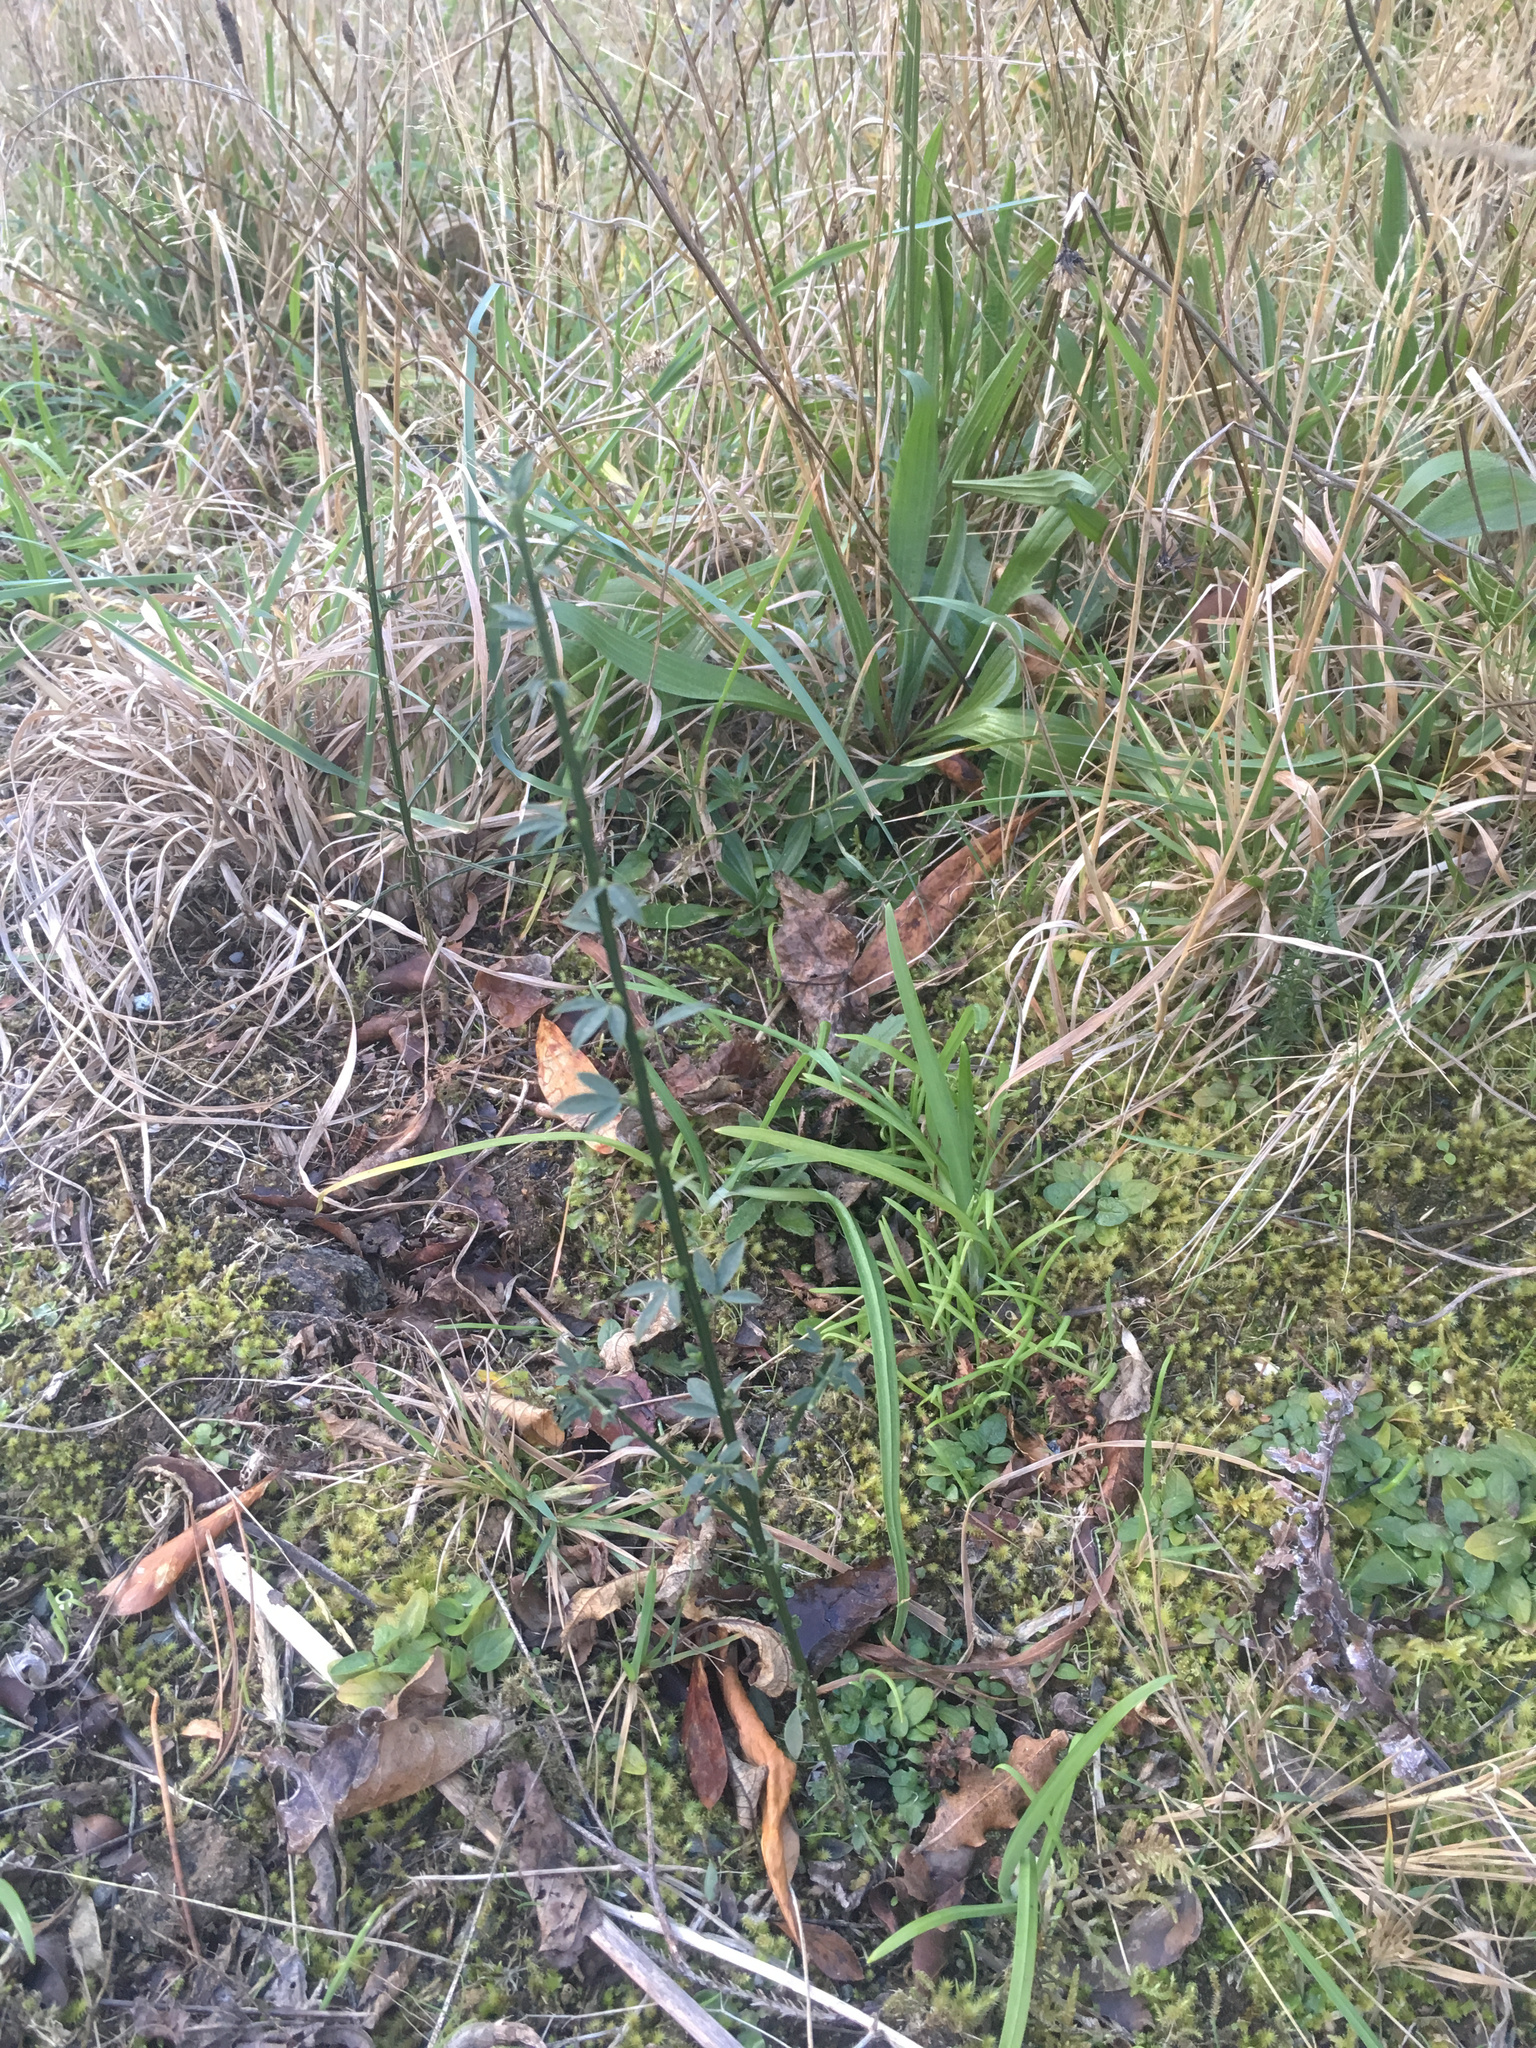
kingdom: Plantae
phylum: Tracheophyta
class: Magnoliopsida
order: Fabales
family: Fabaceae
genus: Cytisus
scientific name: Cytisus scoparius
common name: Scotch broom
